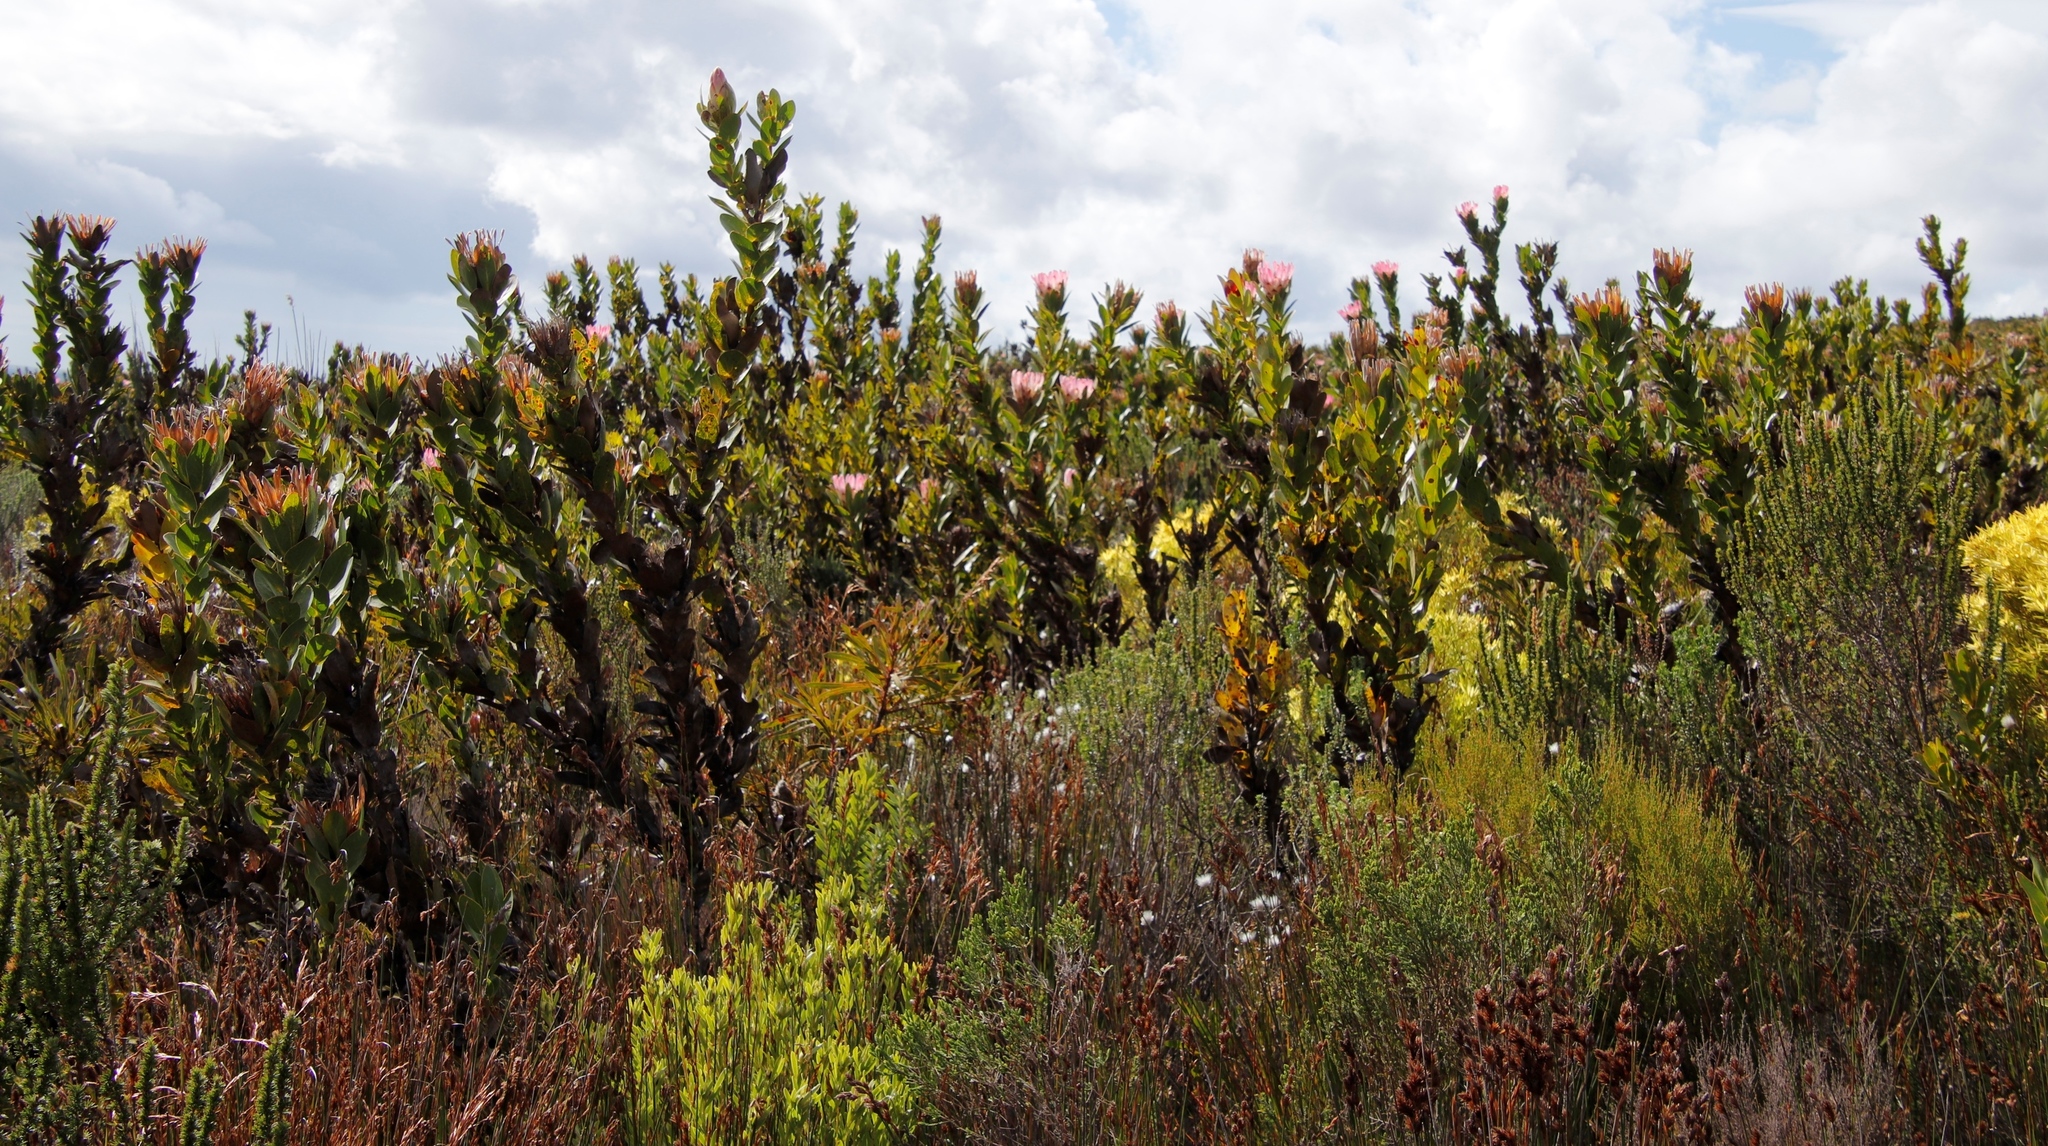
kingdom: Plantae
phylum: Tracheophyta
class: Magnoliopsida
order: Proteales
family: Proteaceae
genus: Protea
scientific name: Protea compacta
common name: Bot river protea
